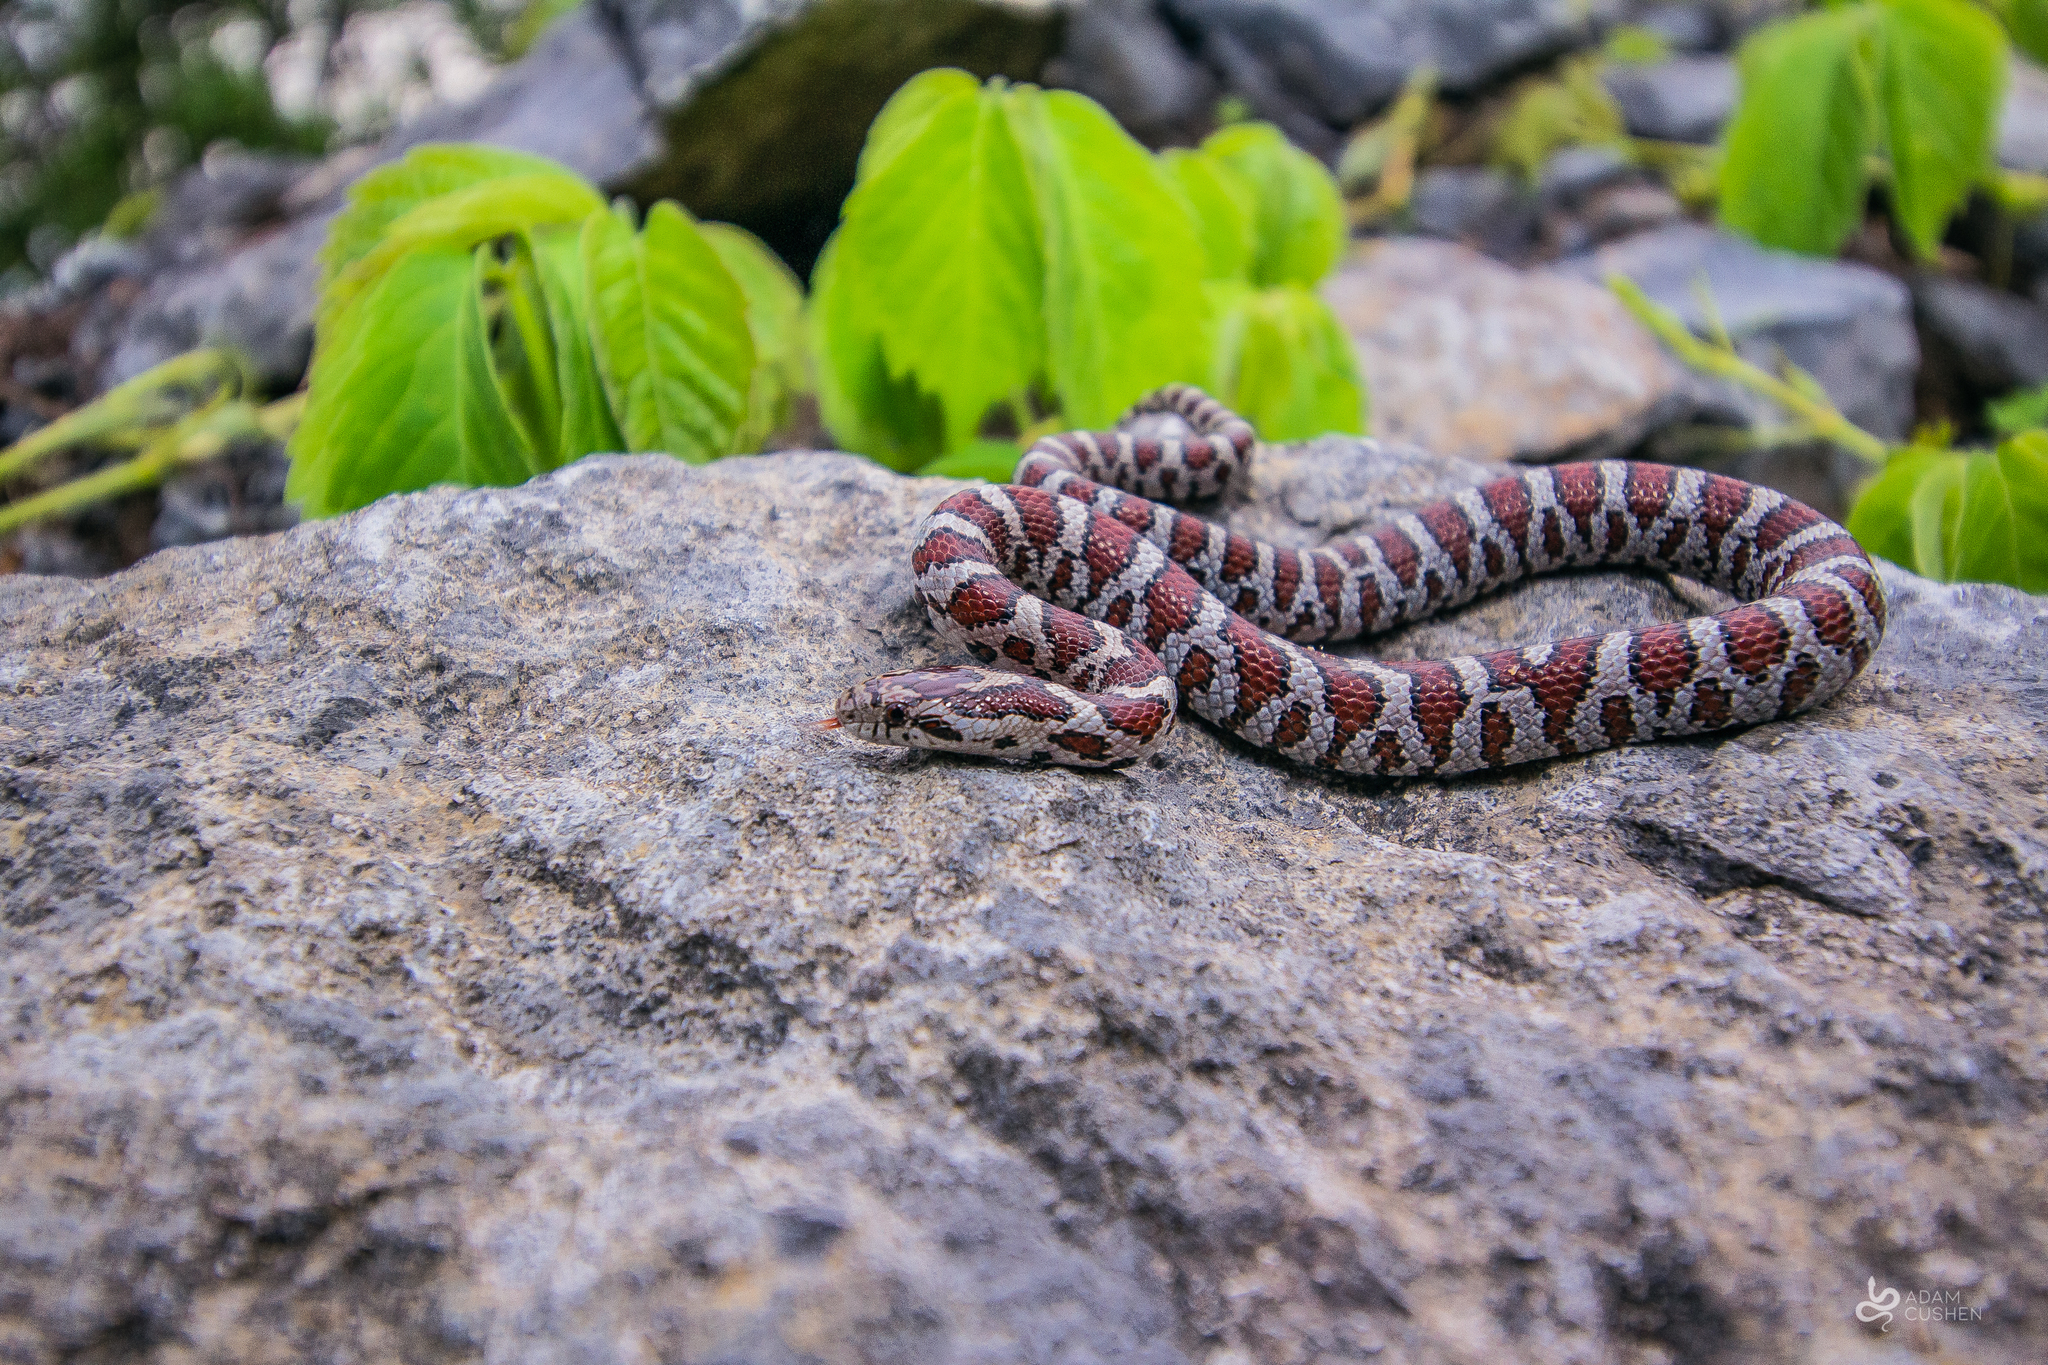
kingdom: Animalia
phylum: Chordata
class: Squamata
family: Colubridae
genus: Lampropeltis
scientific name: Lampropeltis triangulum
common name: Eastern milksnake
